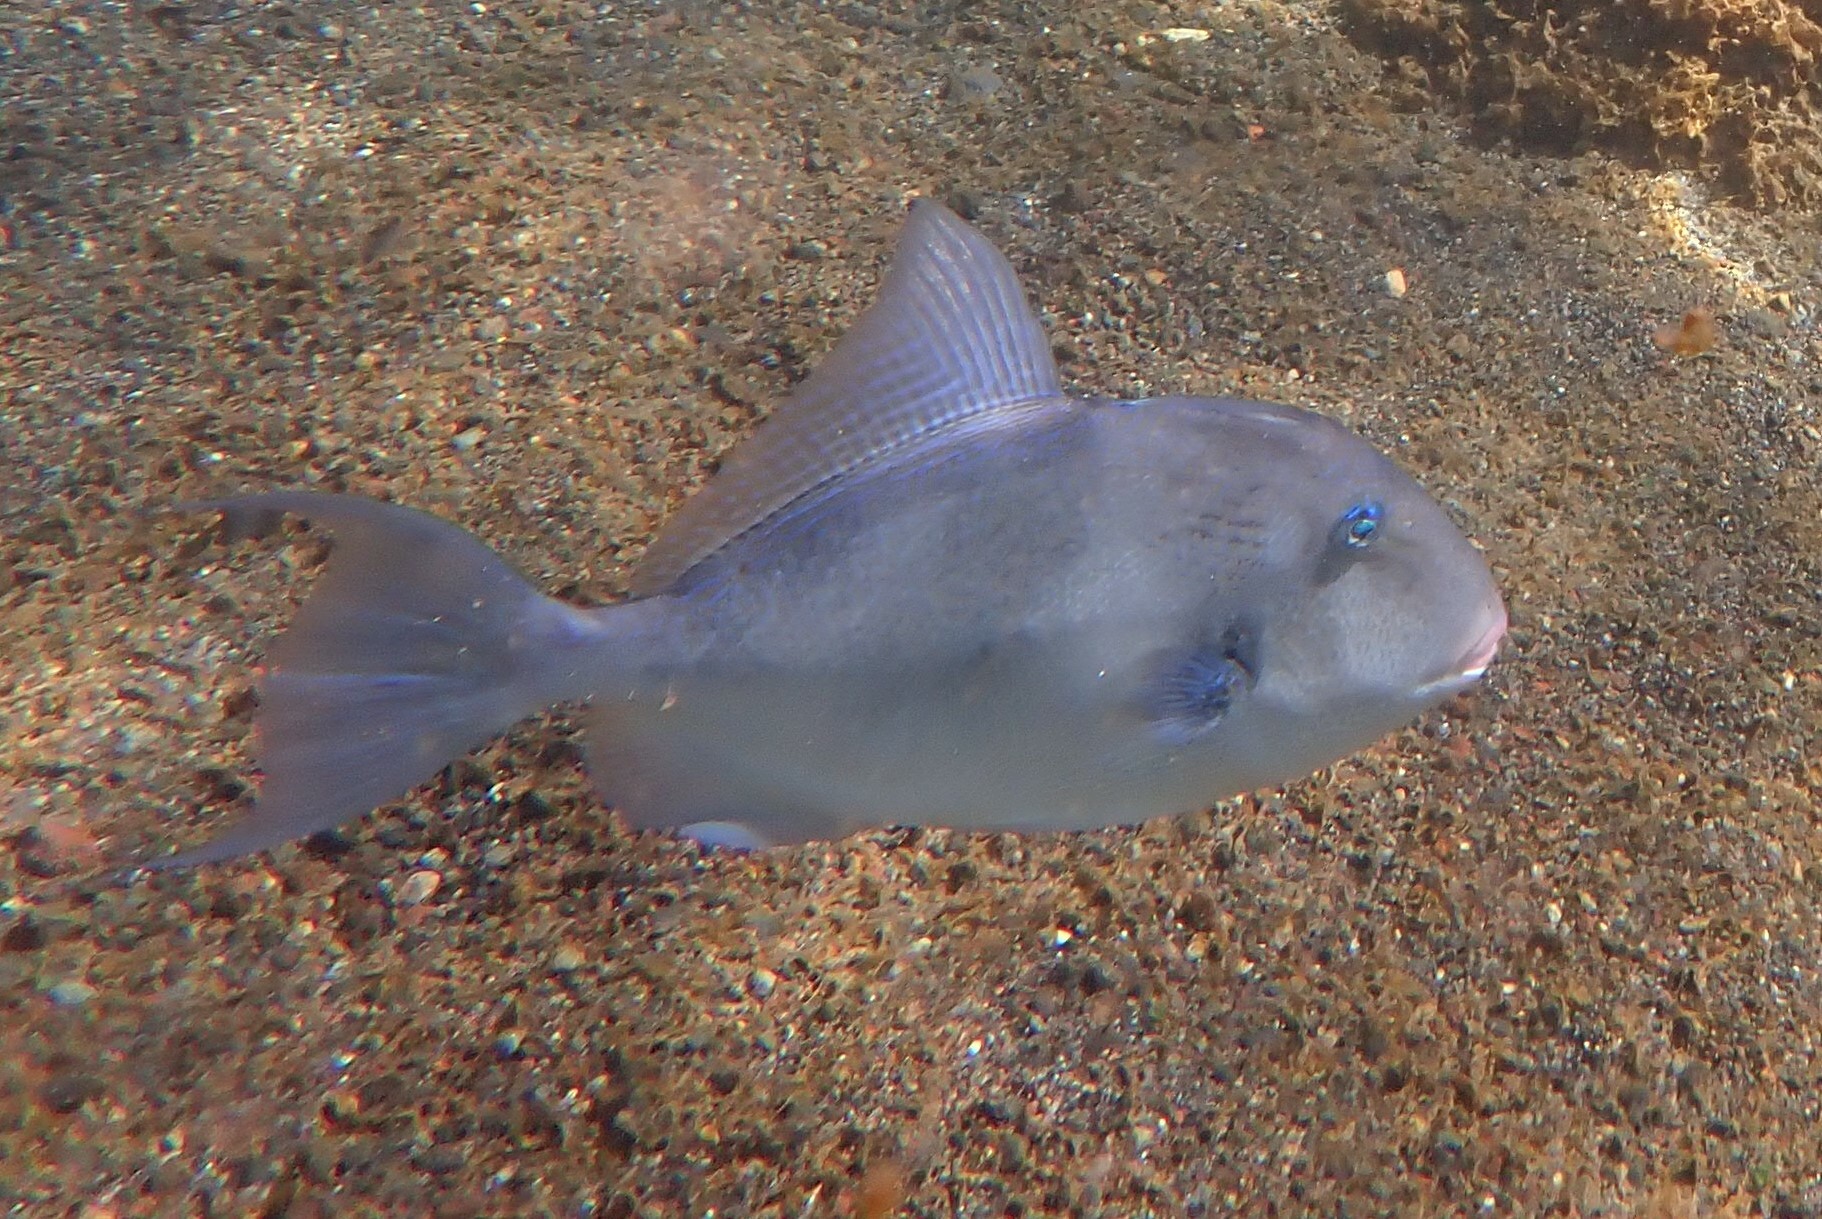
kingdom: Animalia
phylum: Chordata
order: Tetraodontiformes
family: Balistidae
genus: Balistes
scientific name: Balistes capriscus
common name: Grey triggerfish
